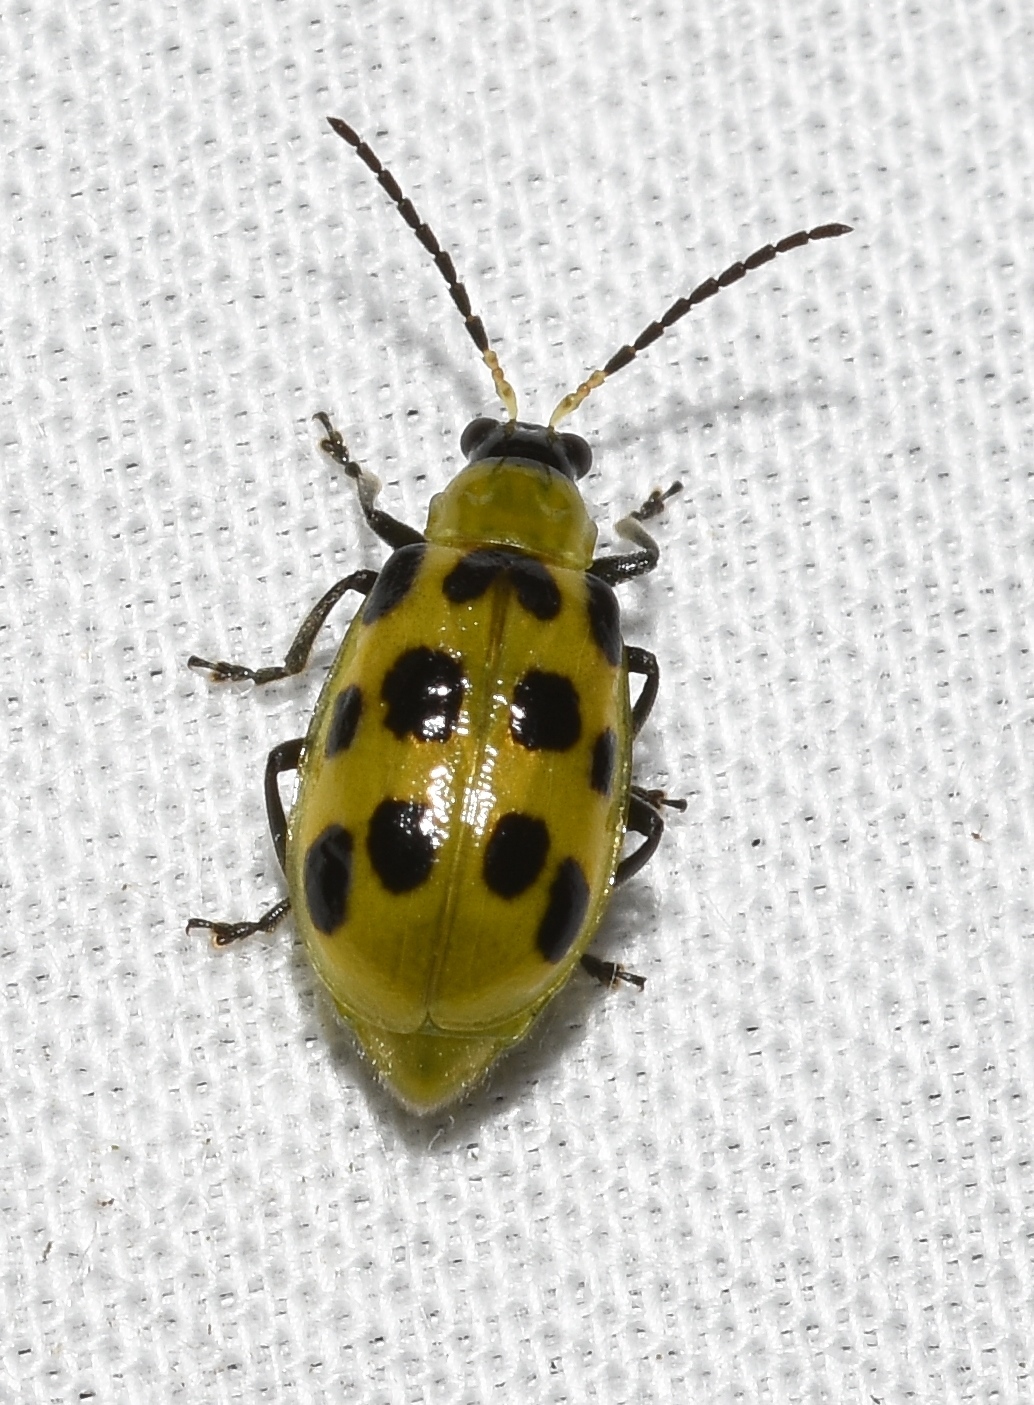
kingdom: Animalia
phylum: Arthropoda
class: Insecta
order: Coleoptera
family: Chrysomelidae
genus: Diabrotica
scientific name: Diabrotica undecimpunctata
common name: Spotted cucumber beetle
